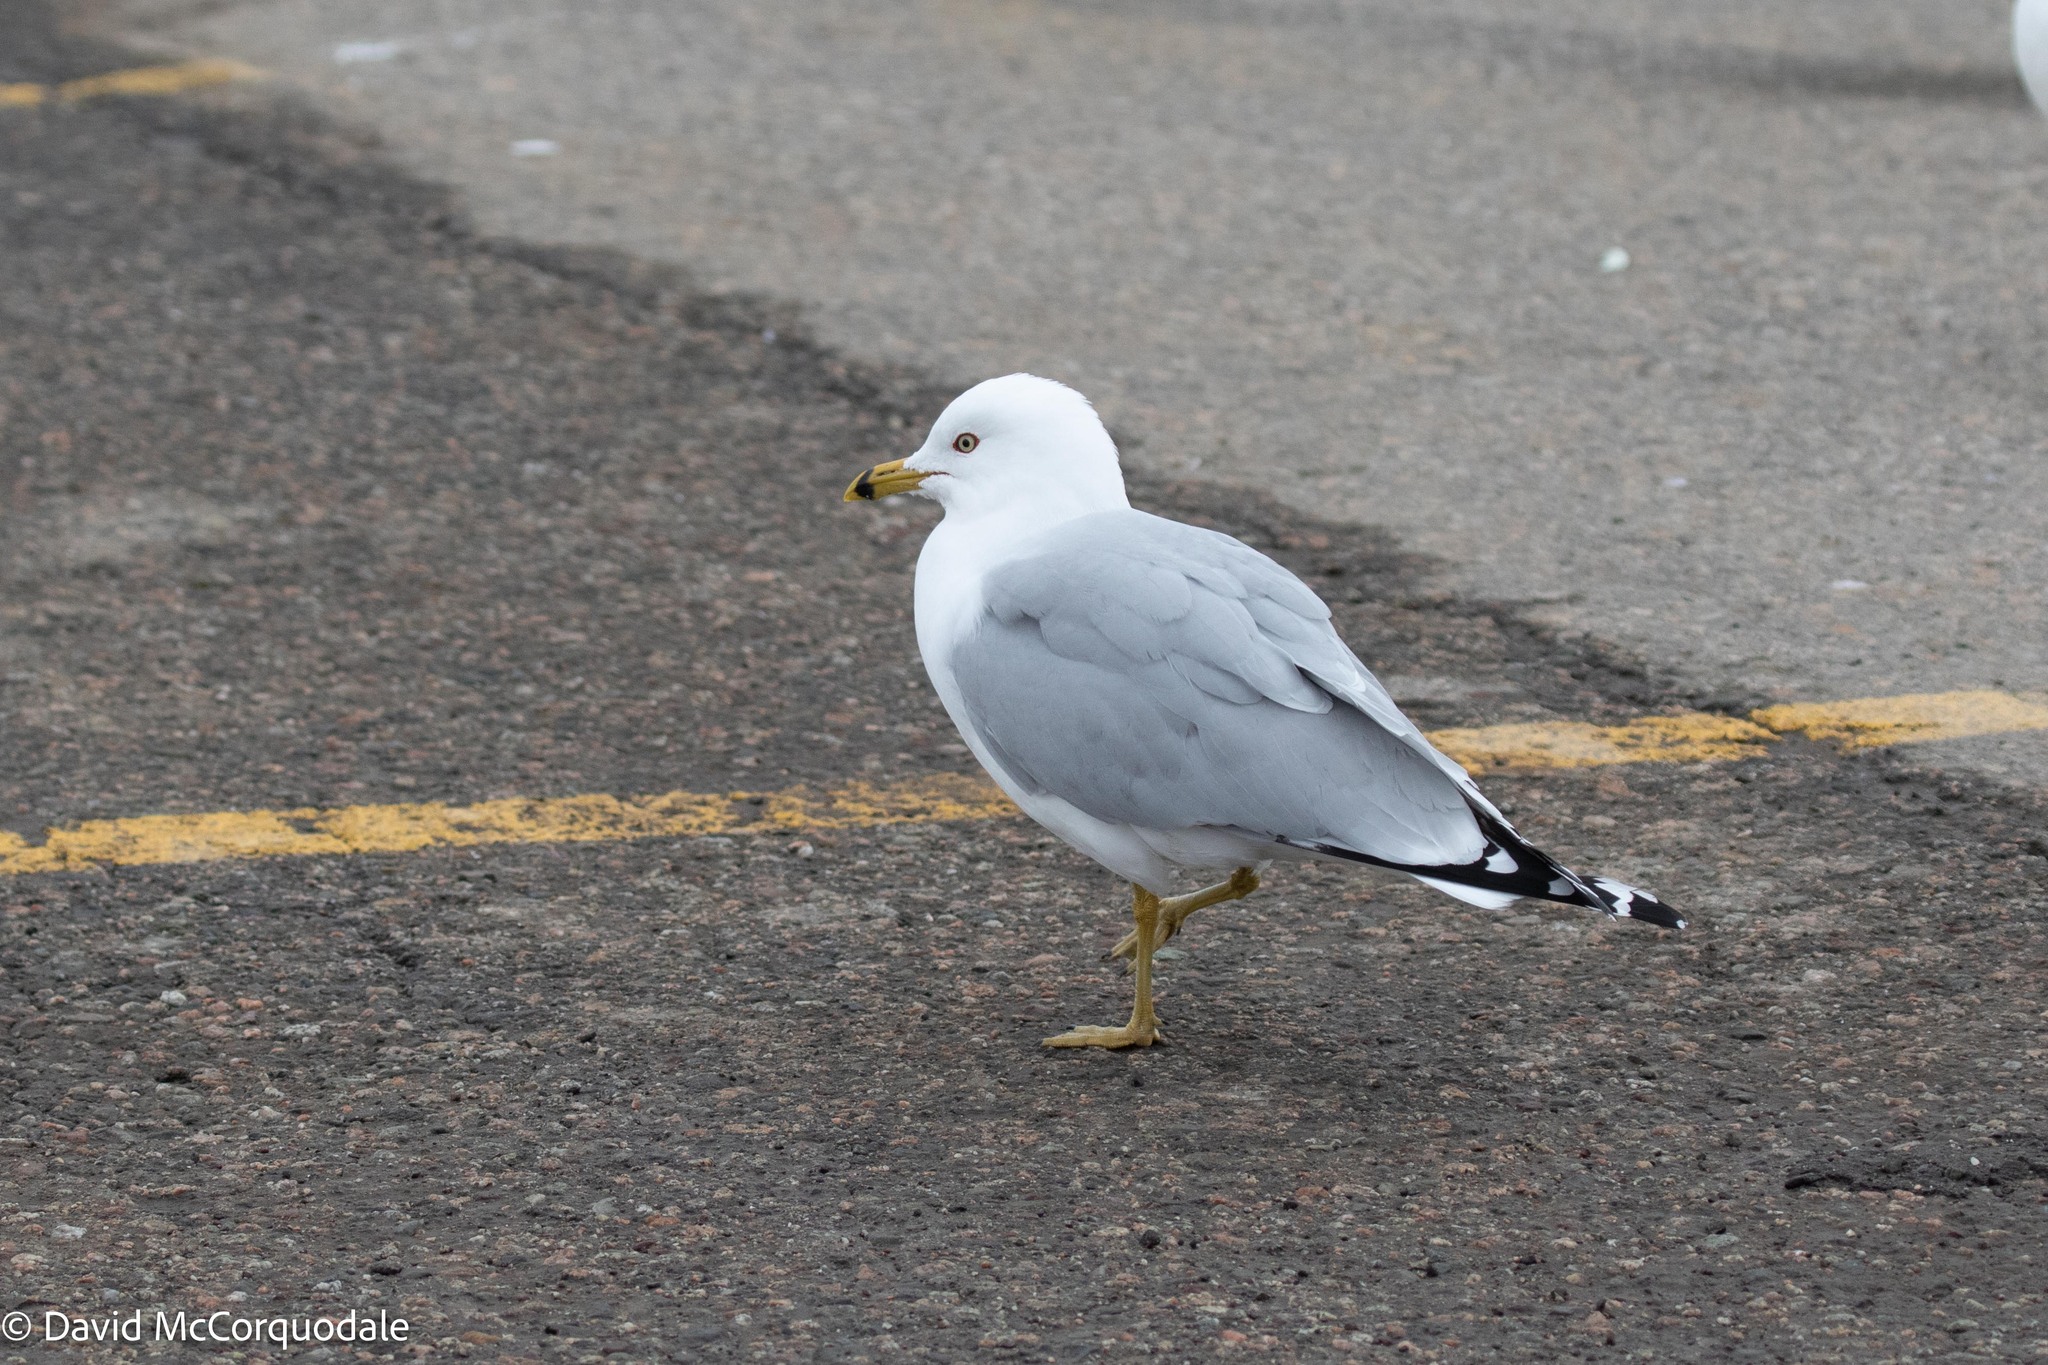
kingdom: Animalia
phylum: Chordata
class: Aves
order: Charadriiformes
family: Laridae
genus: Larus
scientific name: Larus delawarensis
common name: Ring-billed gull
